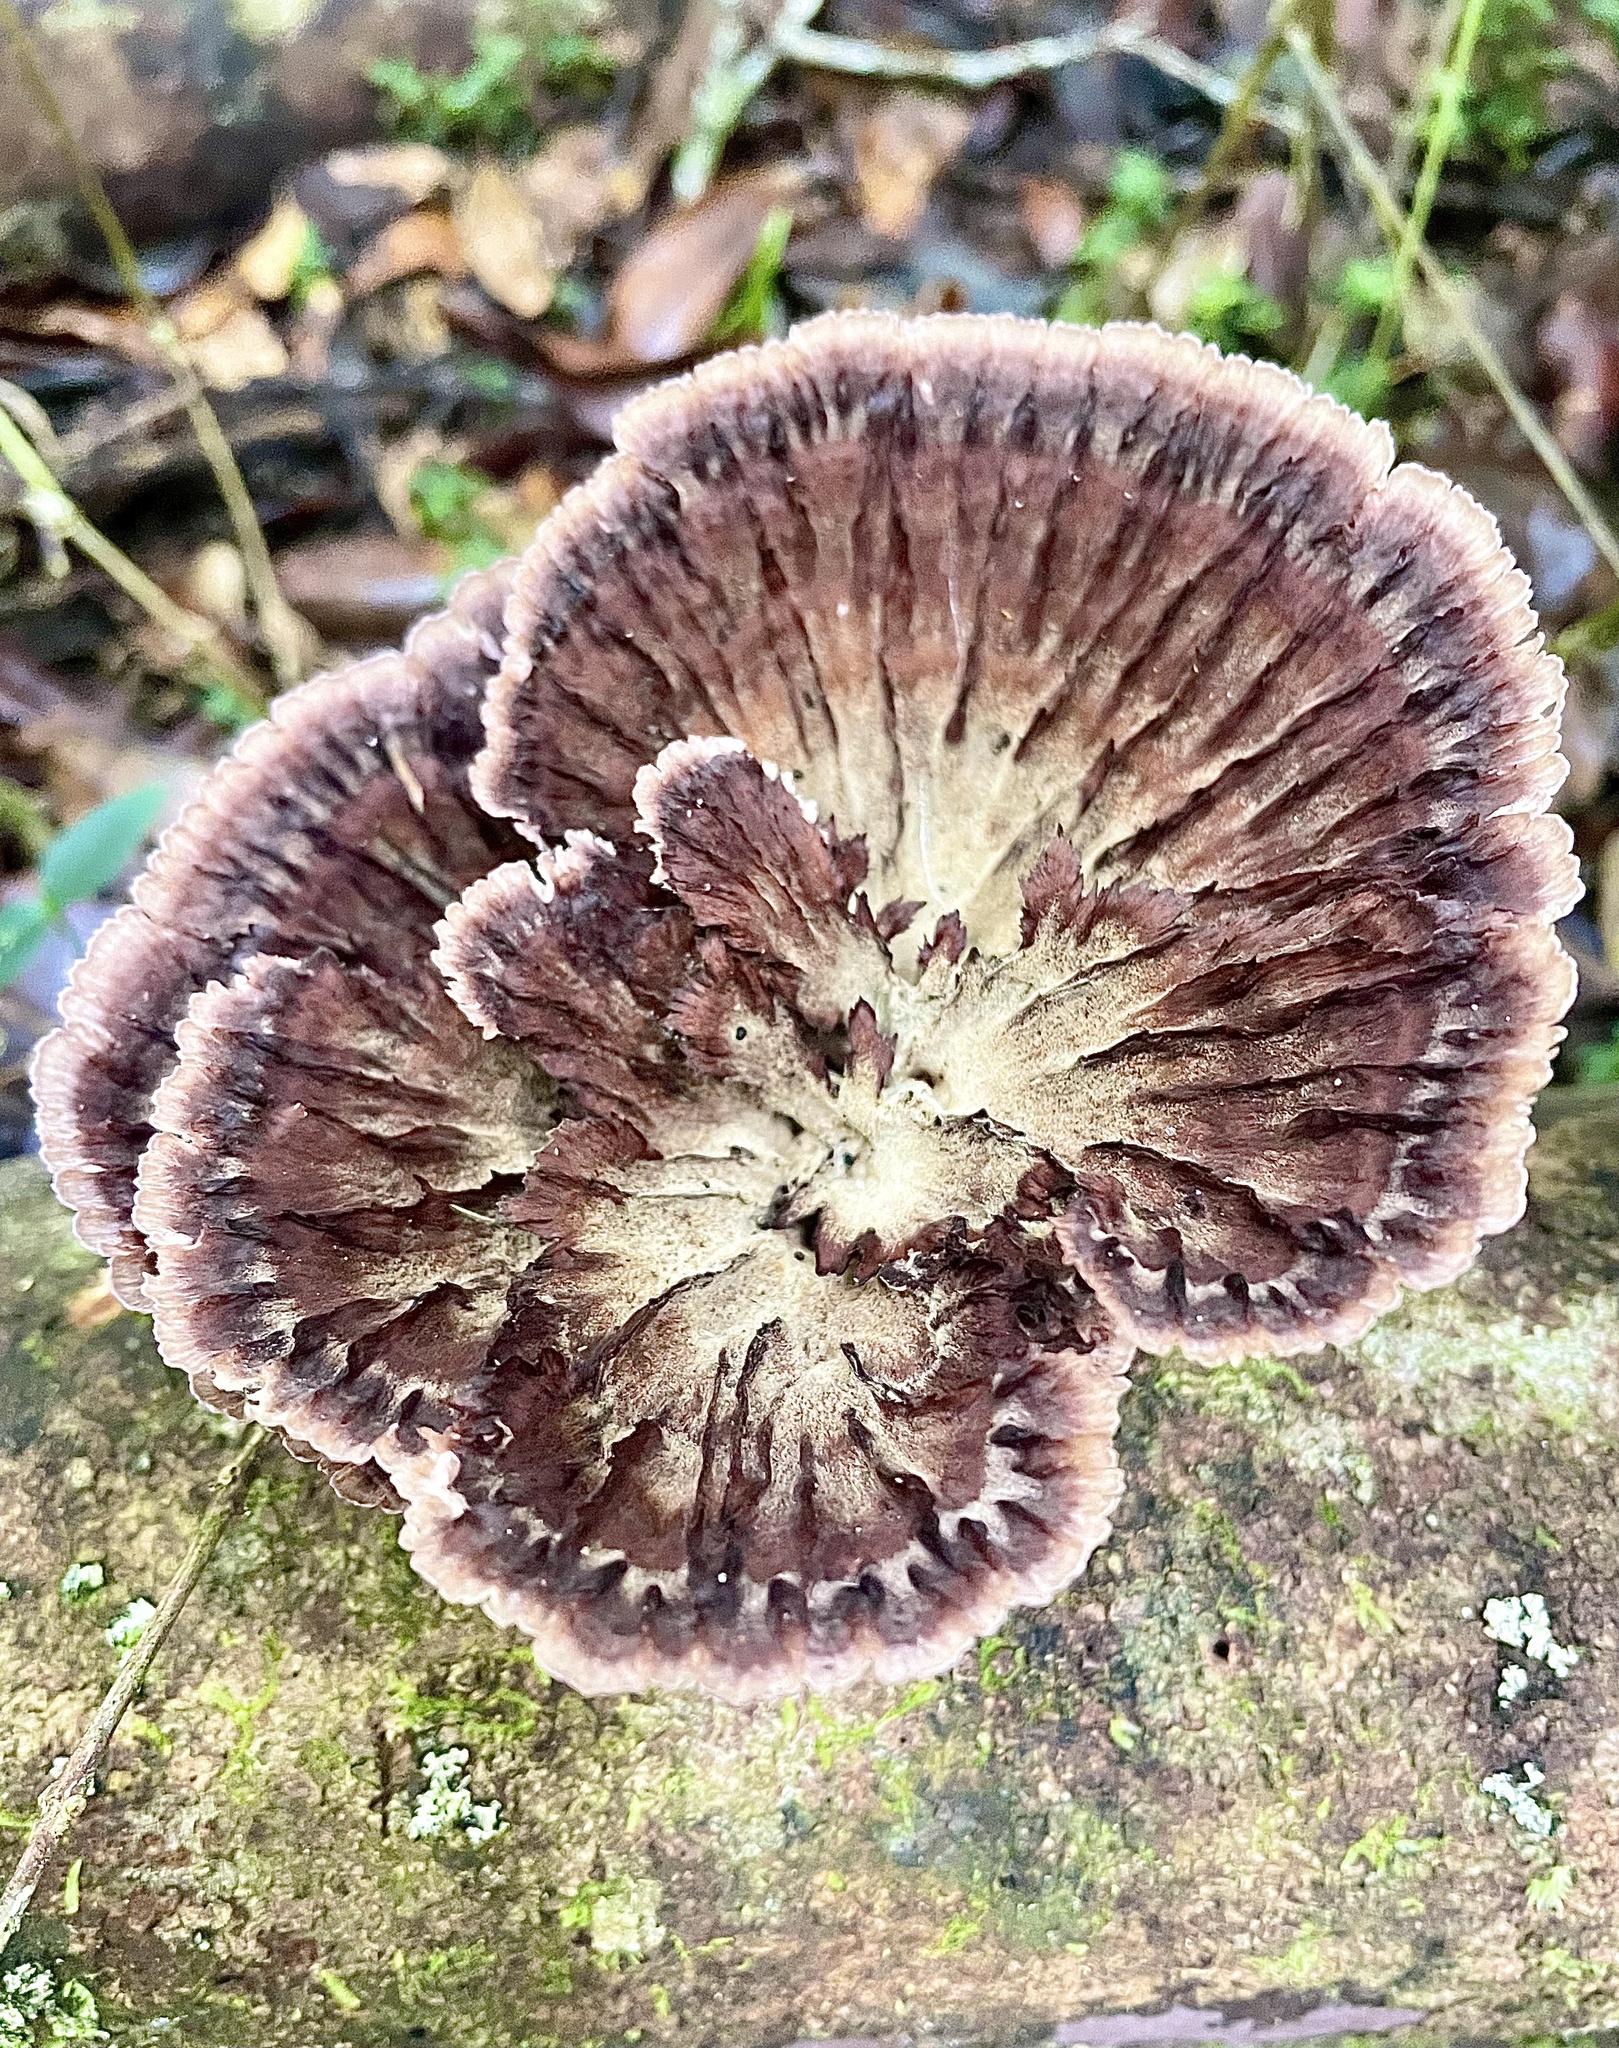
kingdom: Fungi
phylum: Basidiomycota
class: Agaricomycetes
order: Polyporales
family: Panaceae
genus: Cymatoderma
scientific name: Cymatoderma elegans
